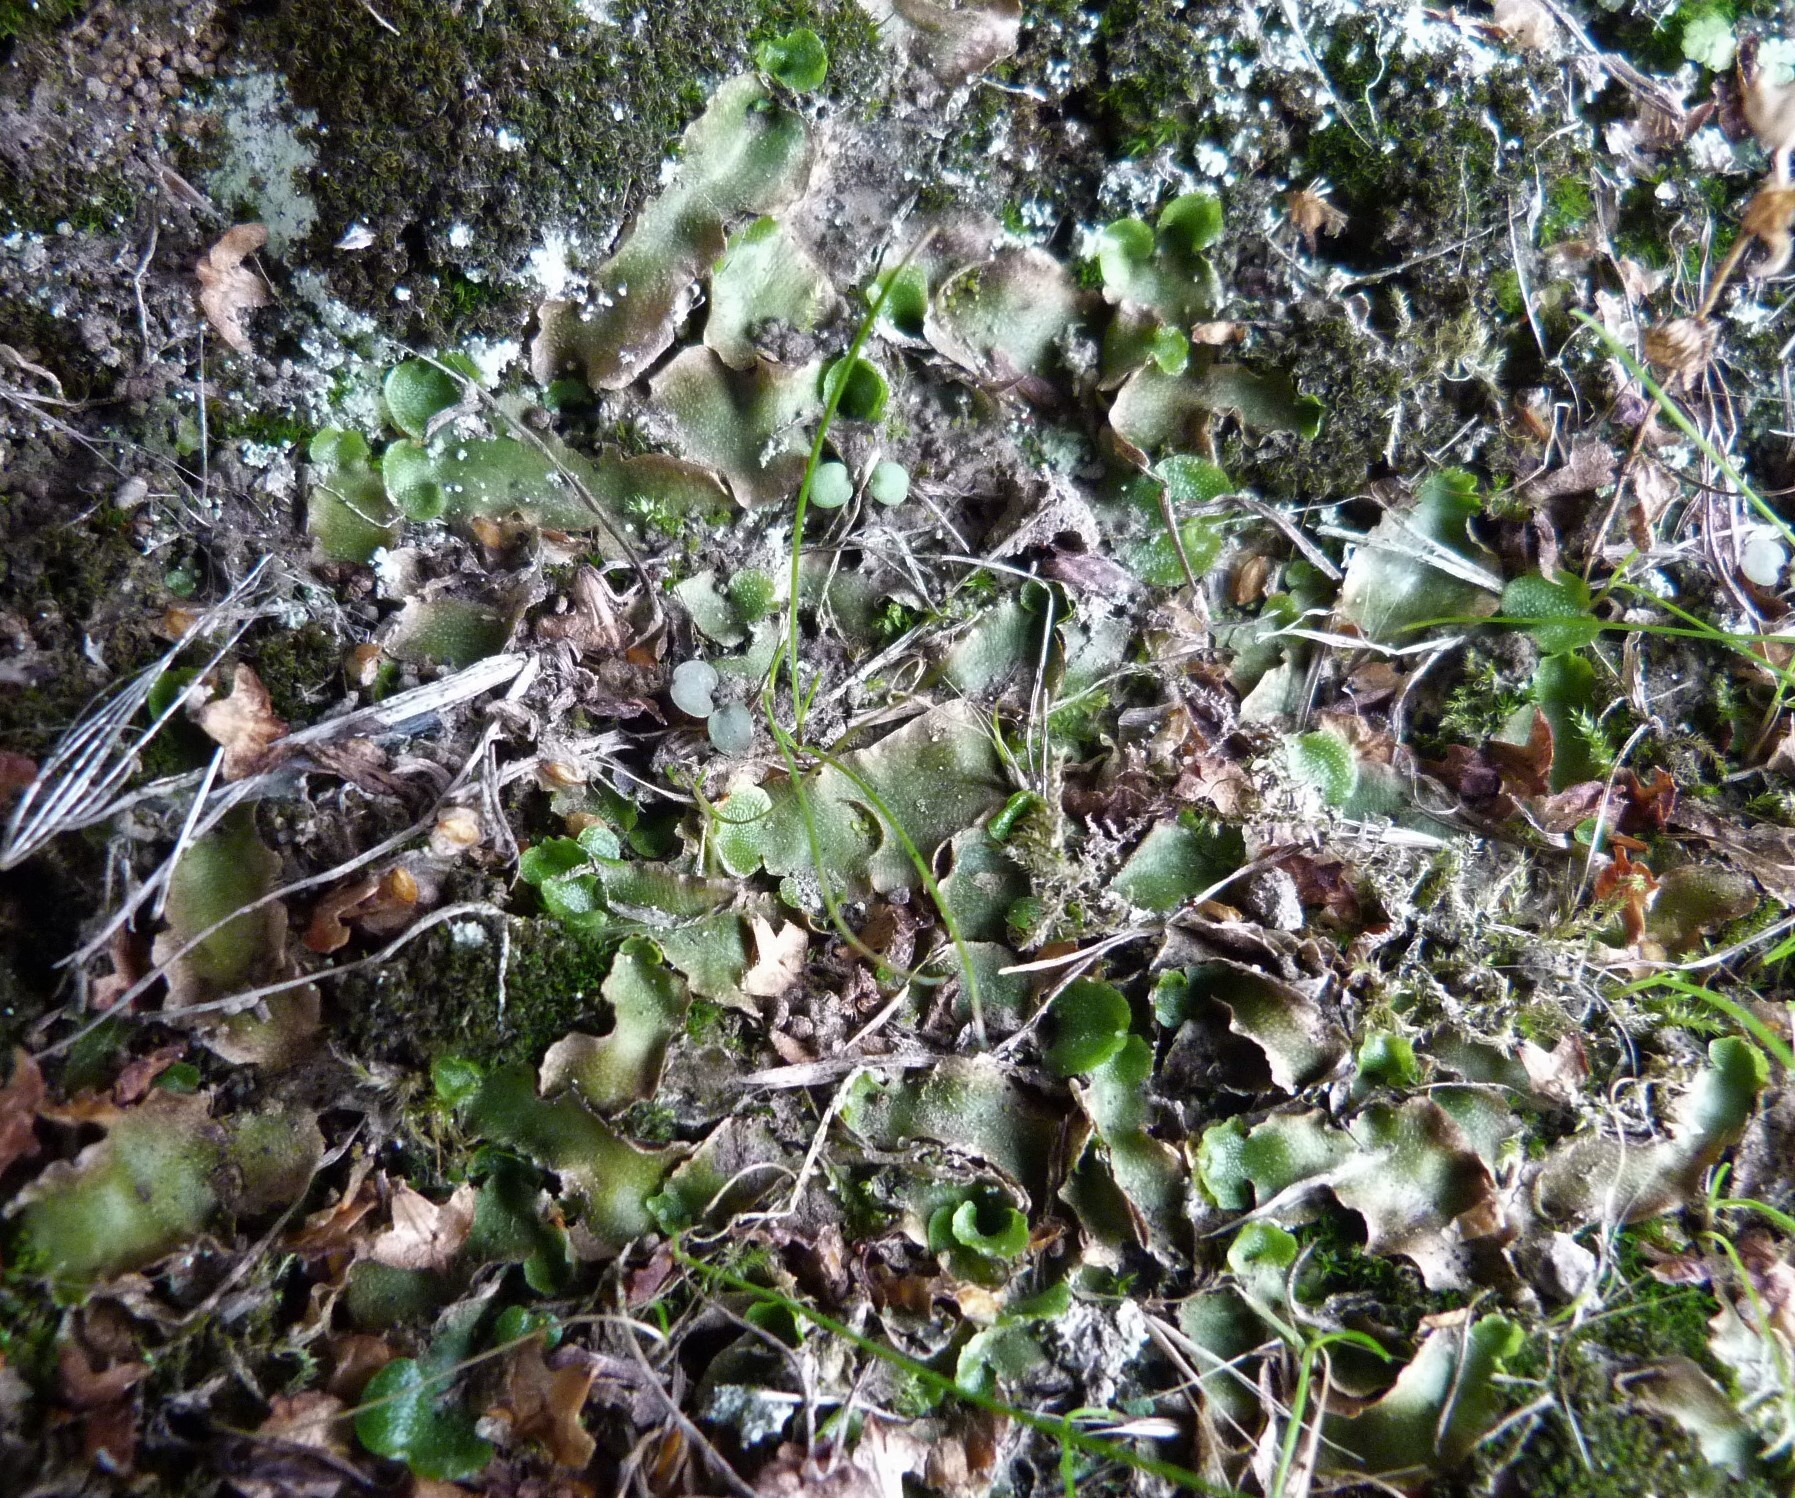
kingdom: Plantae
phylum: Marchantiophyta
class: Marchantiopsida
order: Lunulariales
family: Lunulariaceae
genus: Lunularia
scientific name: Lunularia cruciata
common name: Crescent-cup liverwort
